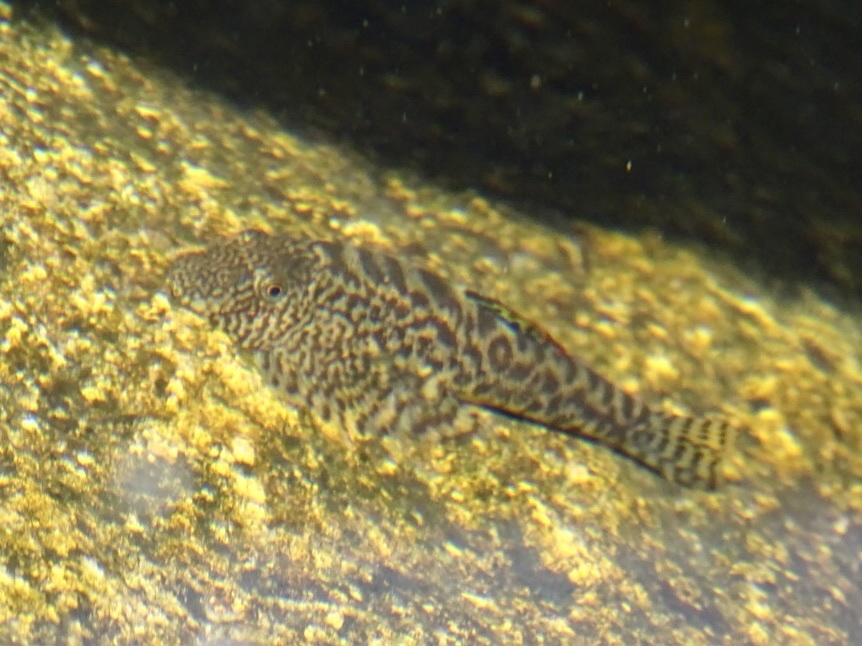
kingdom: Animalia
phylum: Chordata
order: Cypriniformes
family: Balitoridae
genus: Pseudogastromyzon
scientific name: Pseudogastromyzon myersi
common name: Sucker-belly loach
